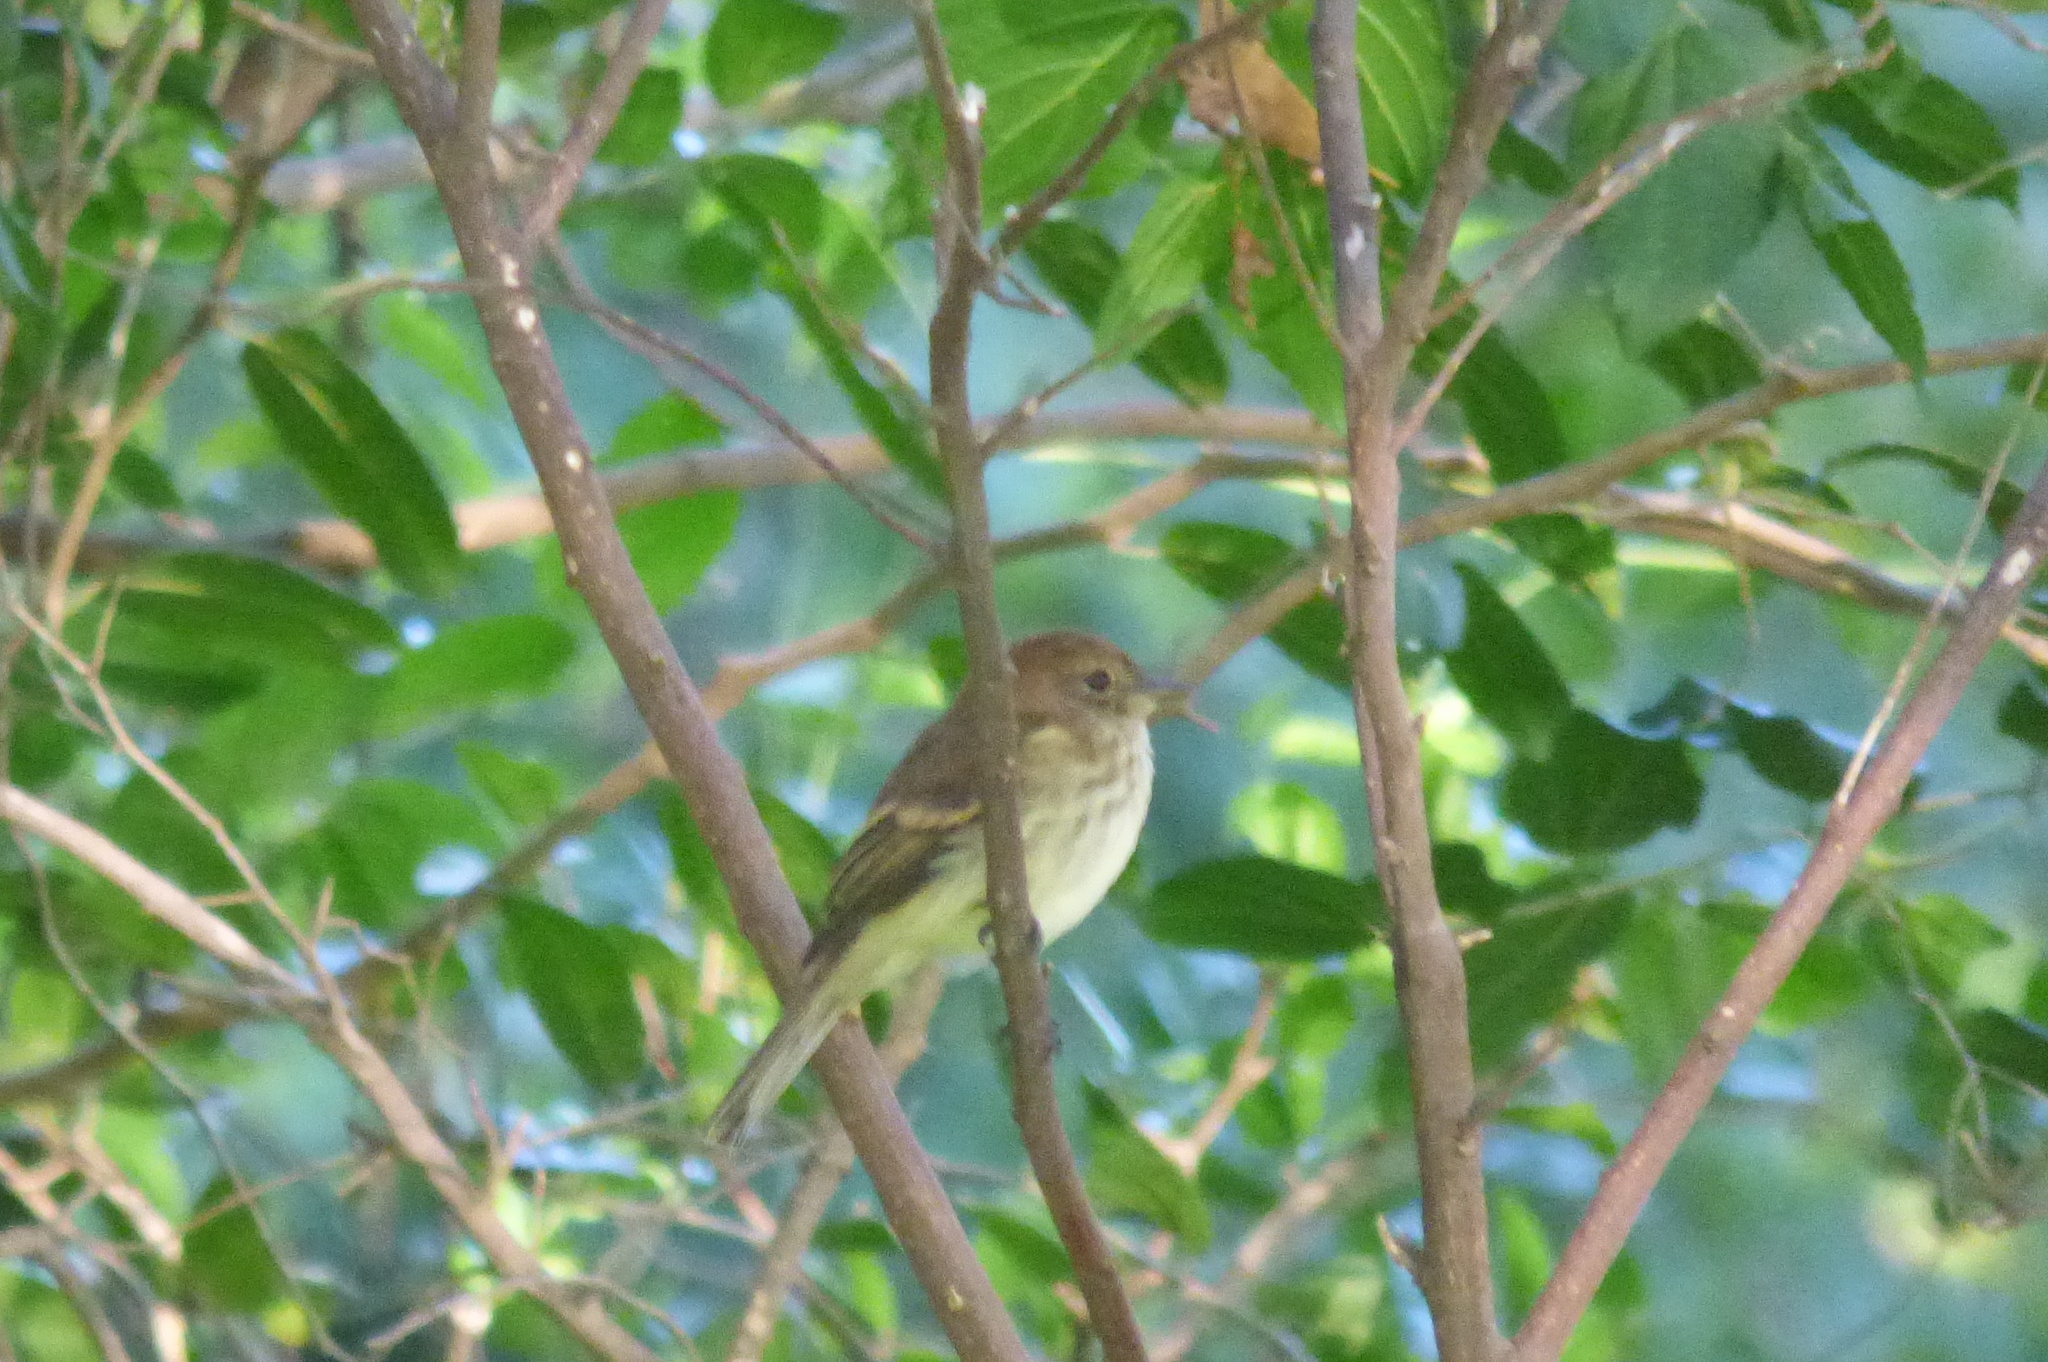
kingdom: Animalia
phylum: Chordata
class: Aves
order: Passeriformes
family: Tyrannidae
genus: Myiophobus
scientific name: Myiophobus fasciatus
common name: Bran-colored flycatcher
